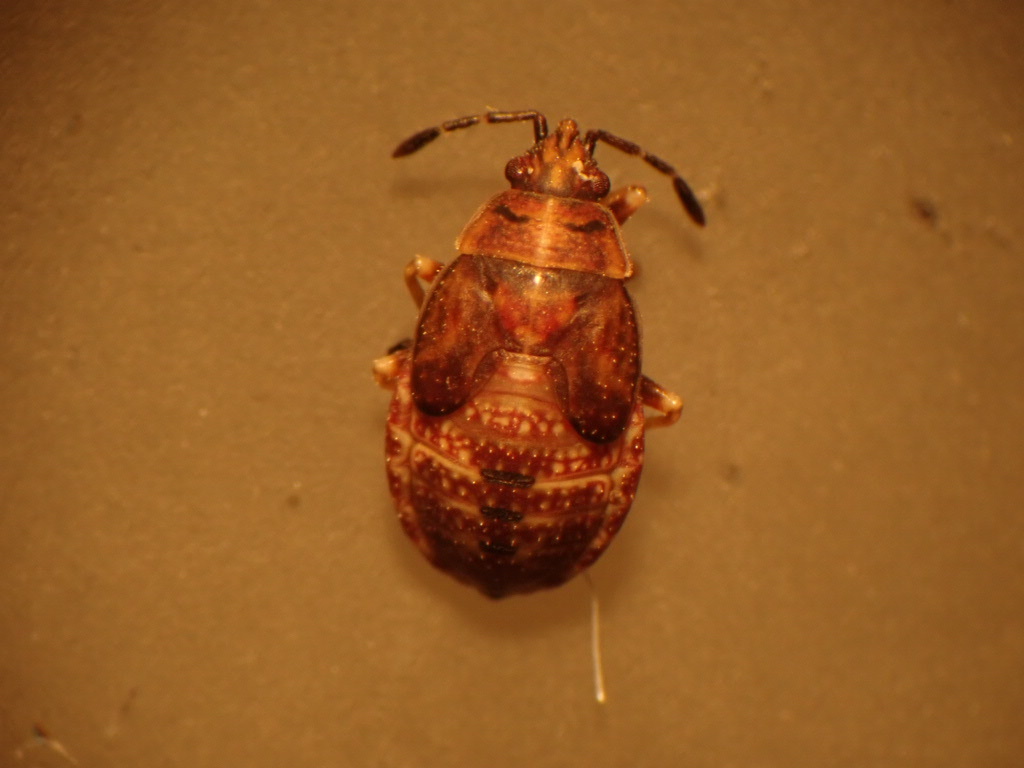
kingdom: Animalia
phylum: Arthropoda
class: Insecta
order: Hemiptera
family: Lygaeidae
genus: Kleidocerys
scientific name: Kleidocerys resedae
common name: Birch catkin bug
